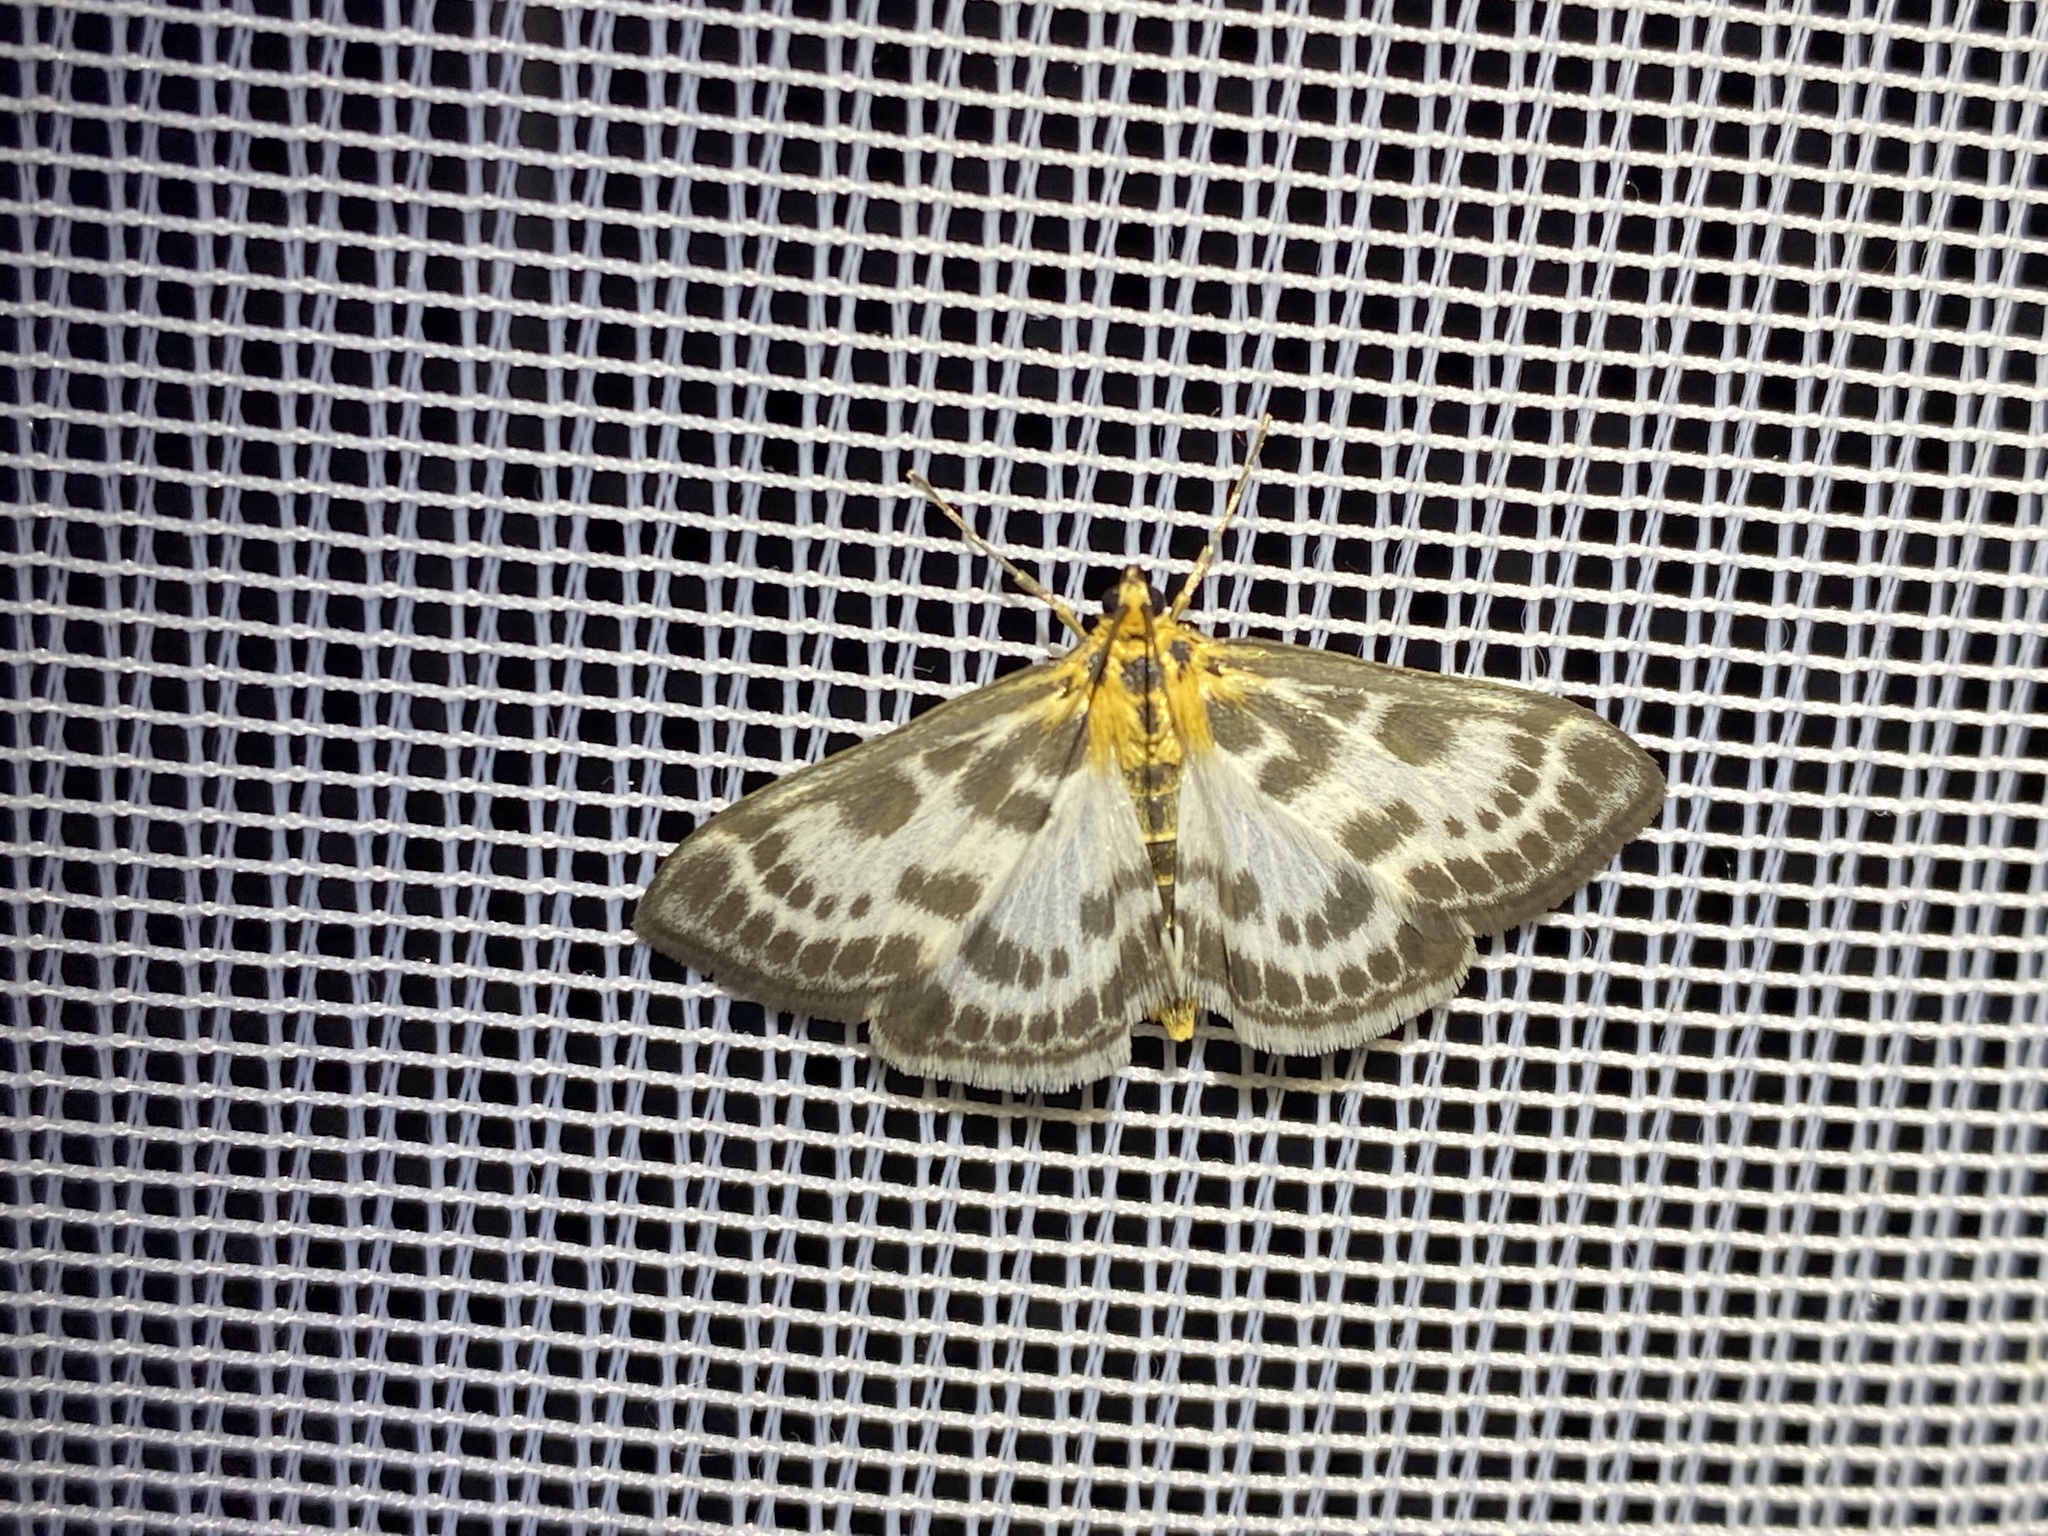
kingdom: Animalia
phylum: Arthropoda
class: Insecta
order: Lepidoptera
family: Crambidae
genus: Anania
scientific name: Anania hortulata
